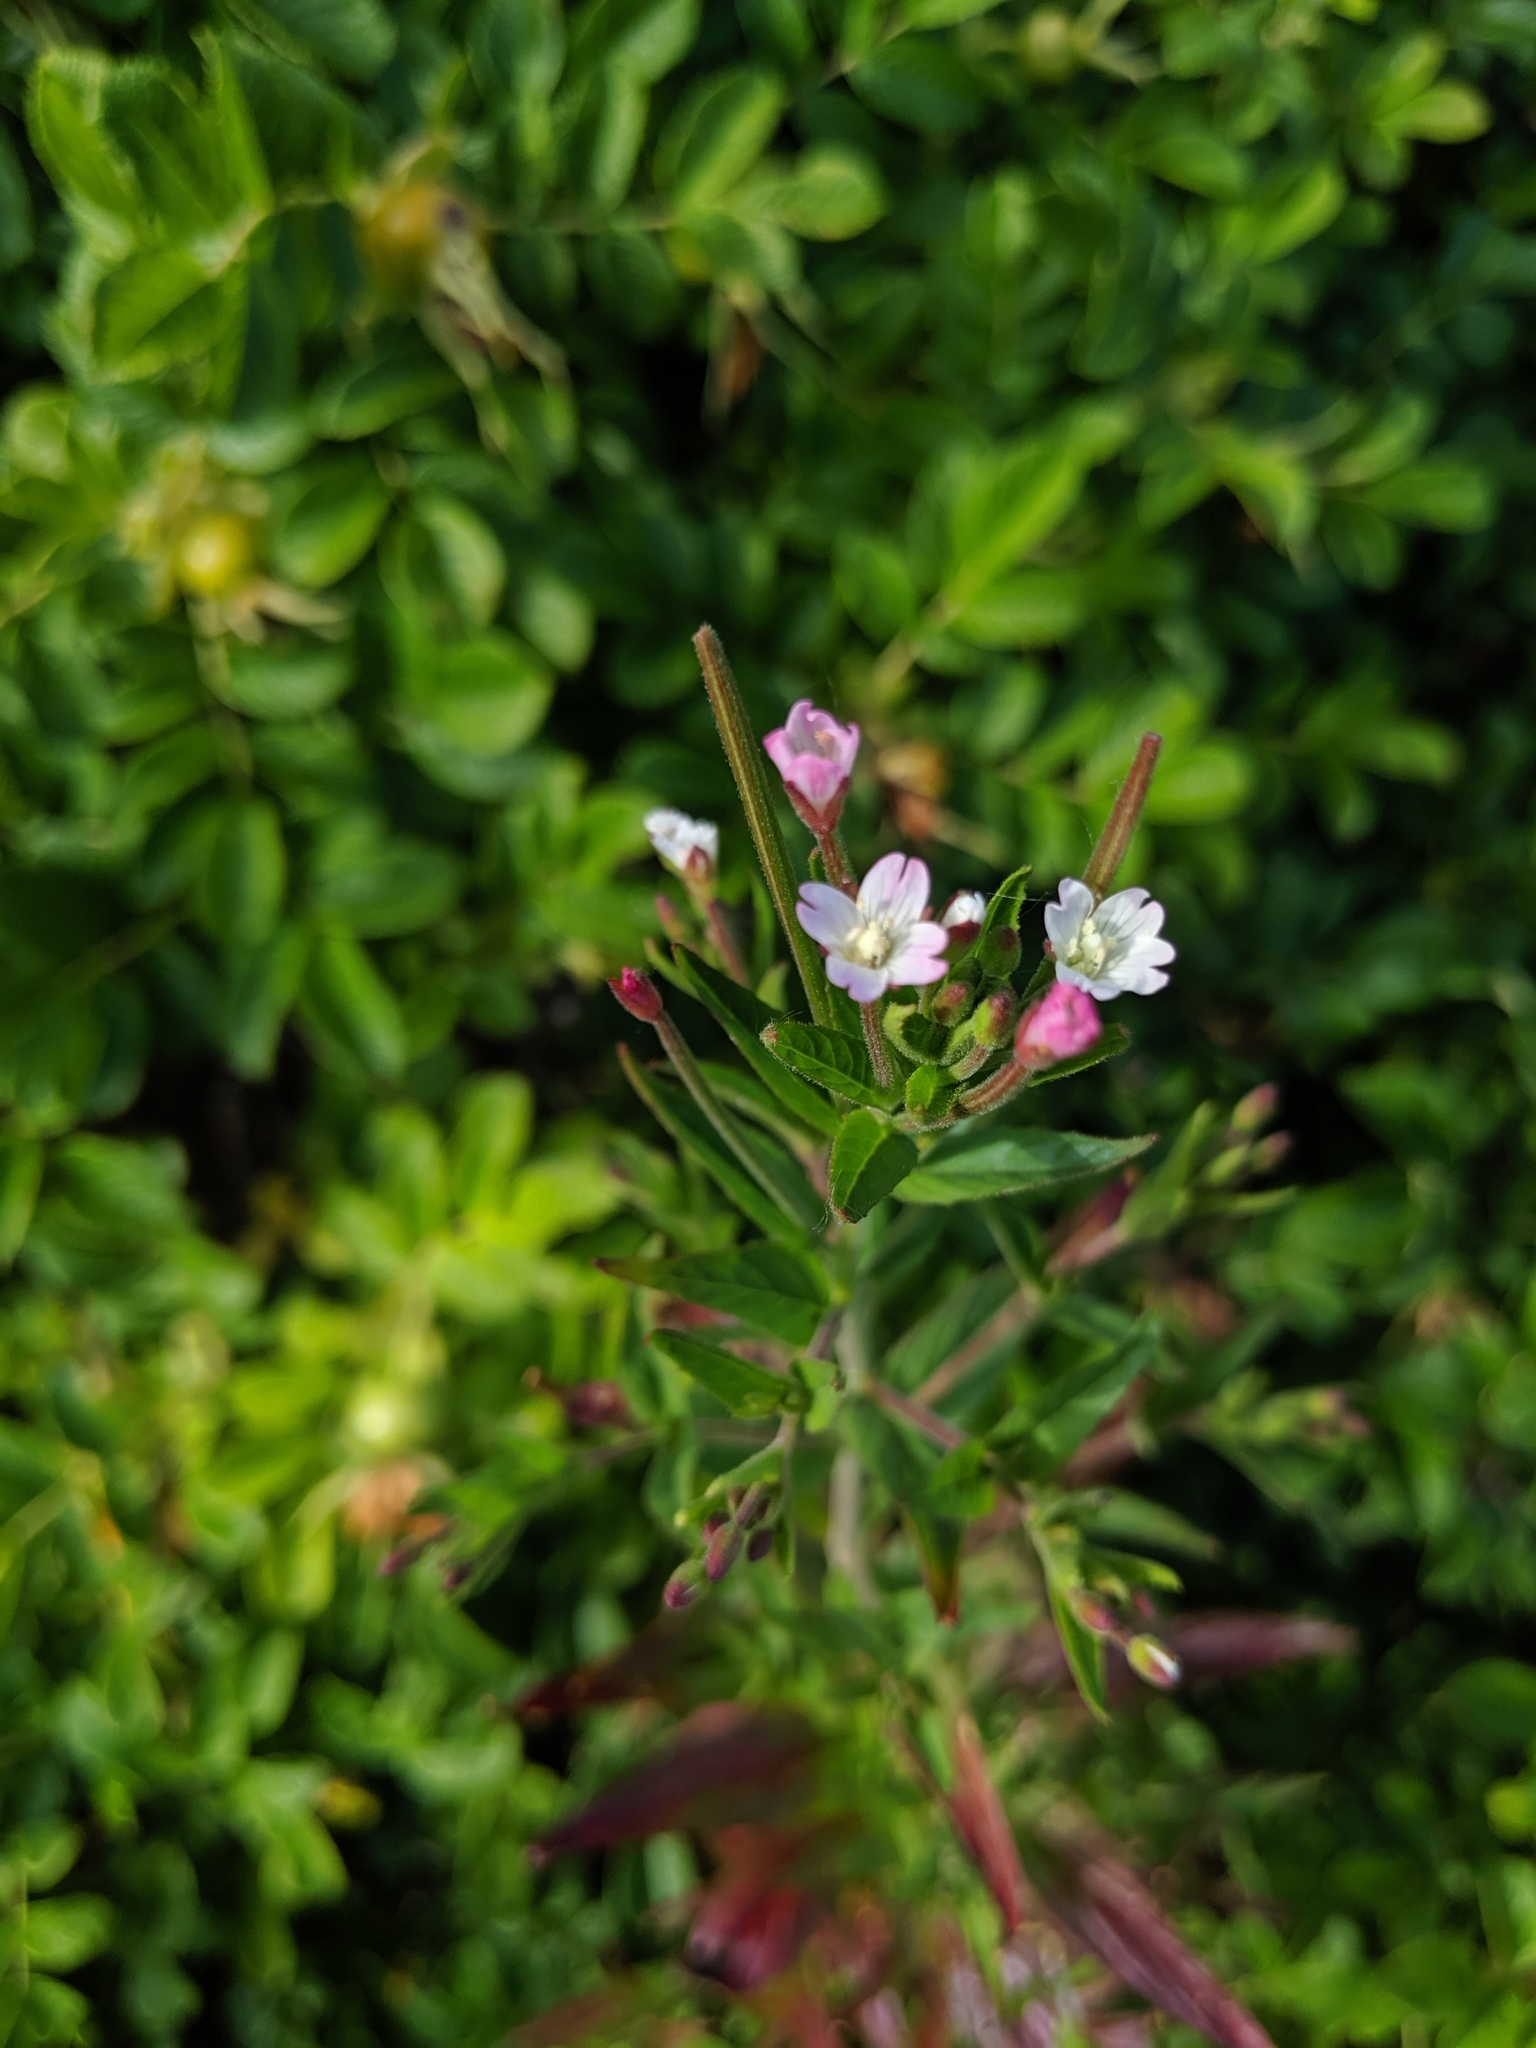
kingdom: Plantae
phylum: Tracheophyta
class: Magnoliopsida
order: Myrtales
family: Onagraceae
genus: Epilobium
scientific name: Epilobium ciliatum
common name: American willowherb
